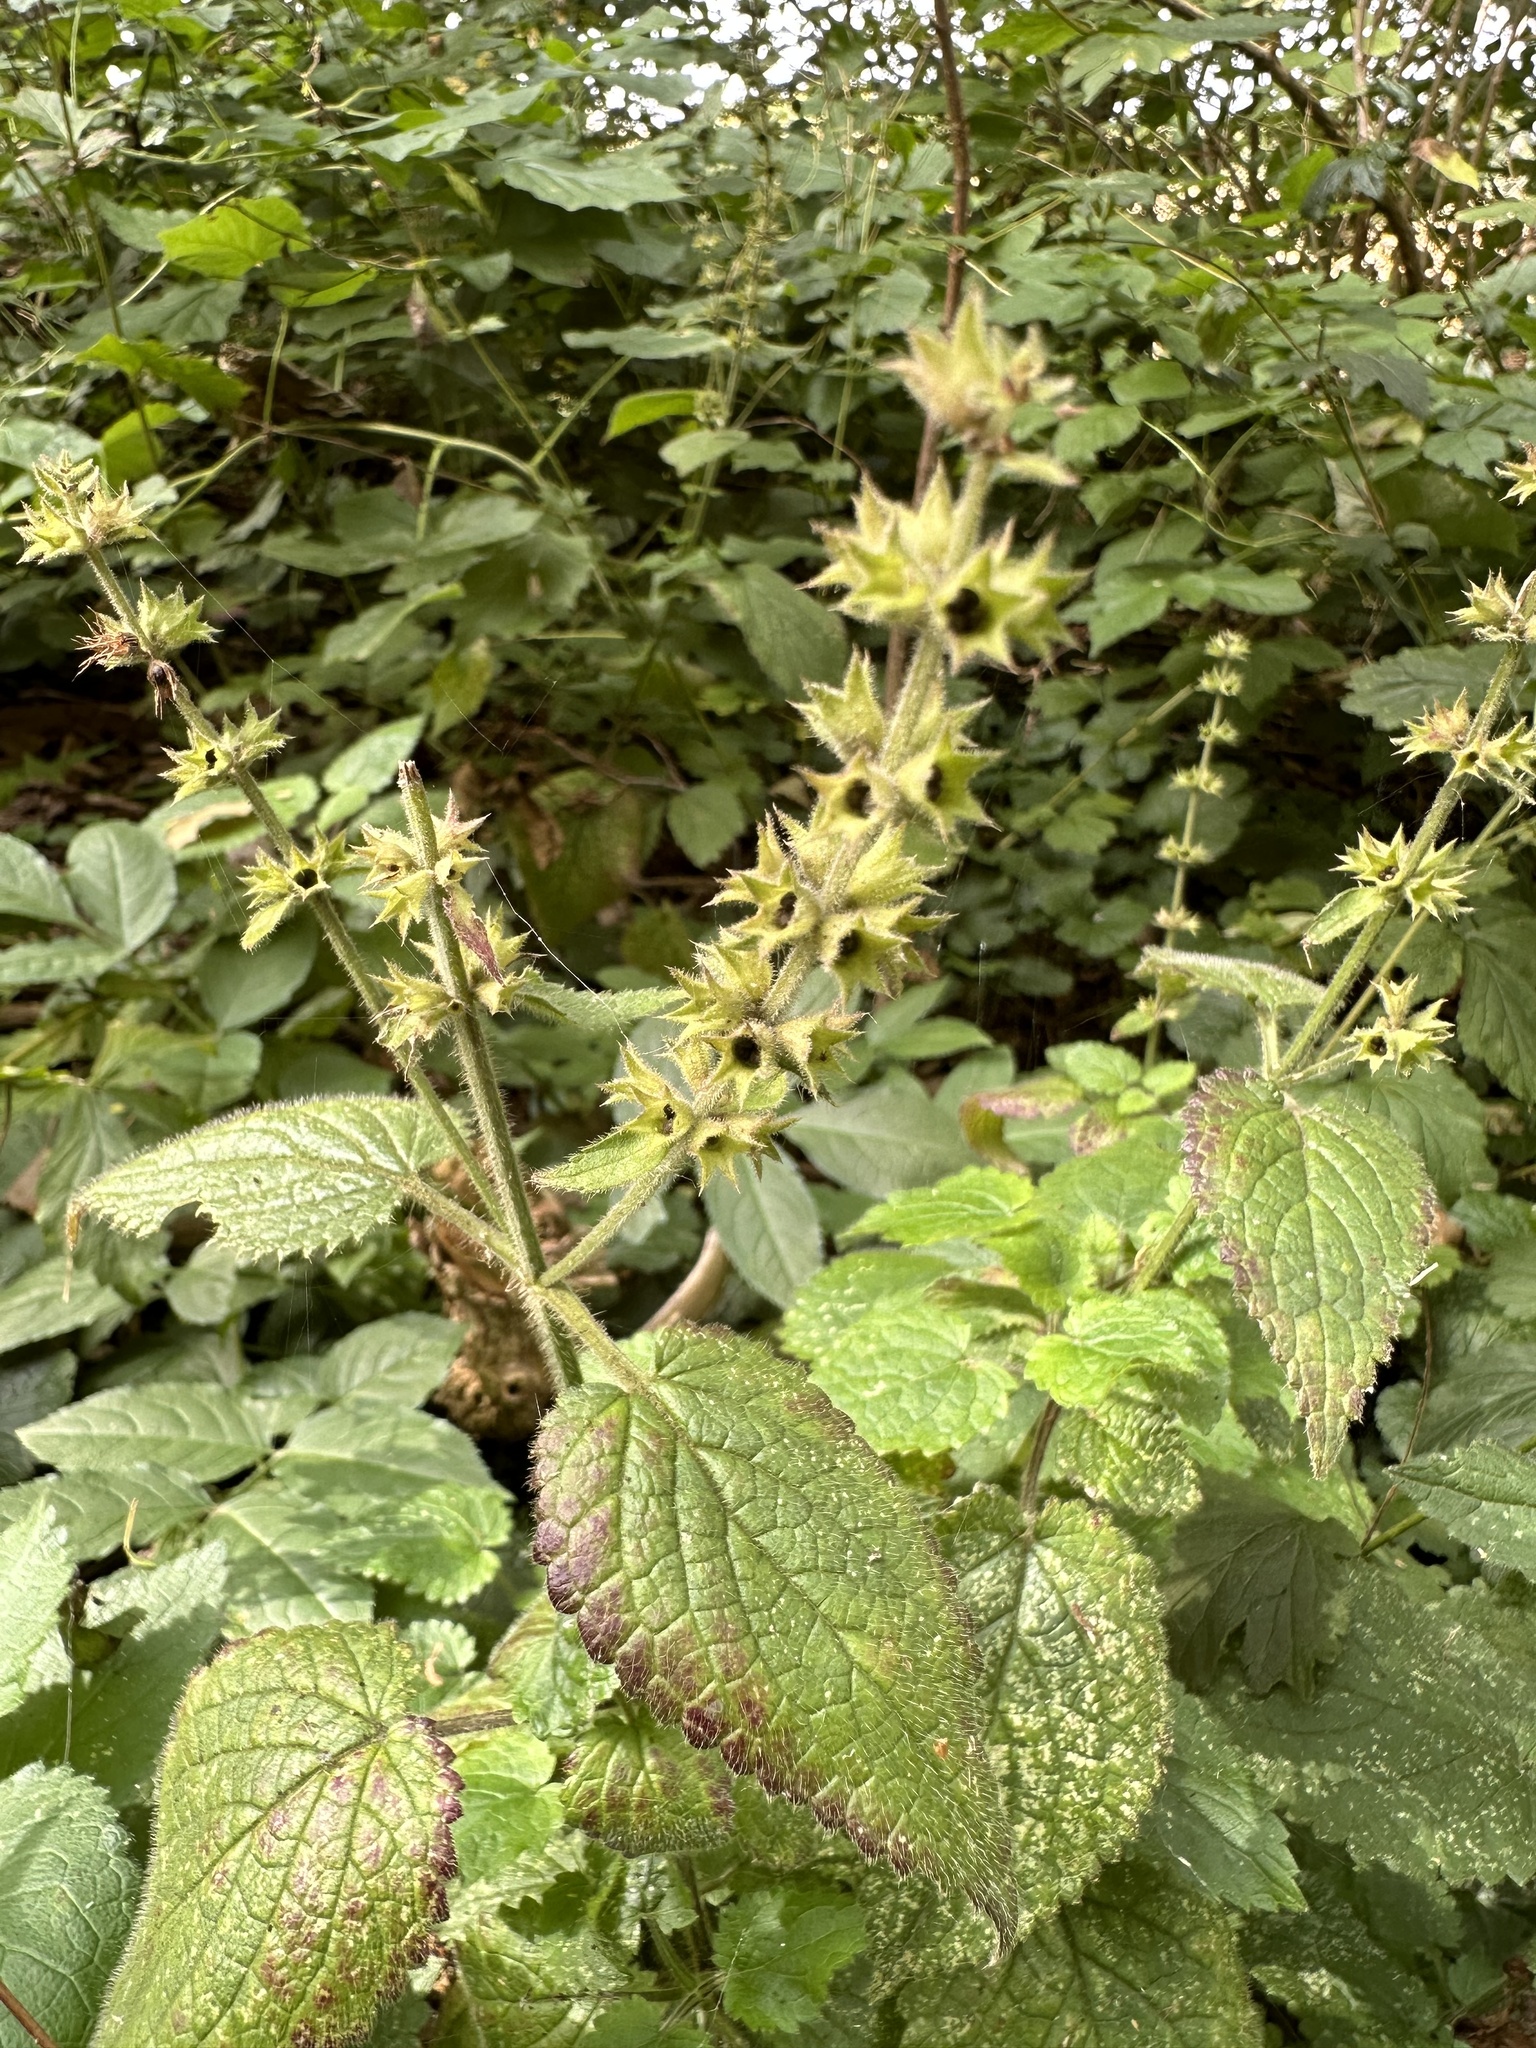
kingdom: Plantae
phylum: Tracheophyta
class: Magnoliopsida
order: Lamiales
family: Lamiaceae
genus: Stachys
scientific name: Stachys sylvatica
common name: Hedge woundwort
